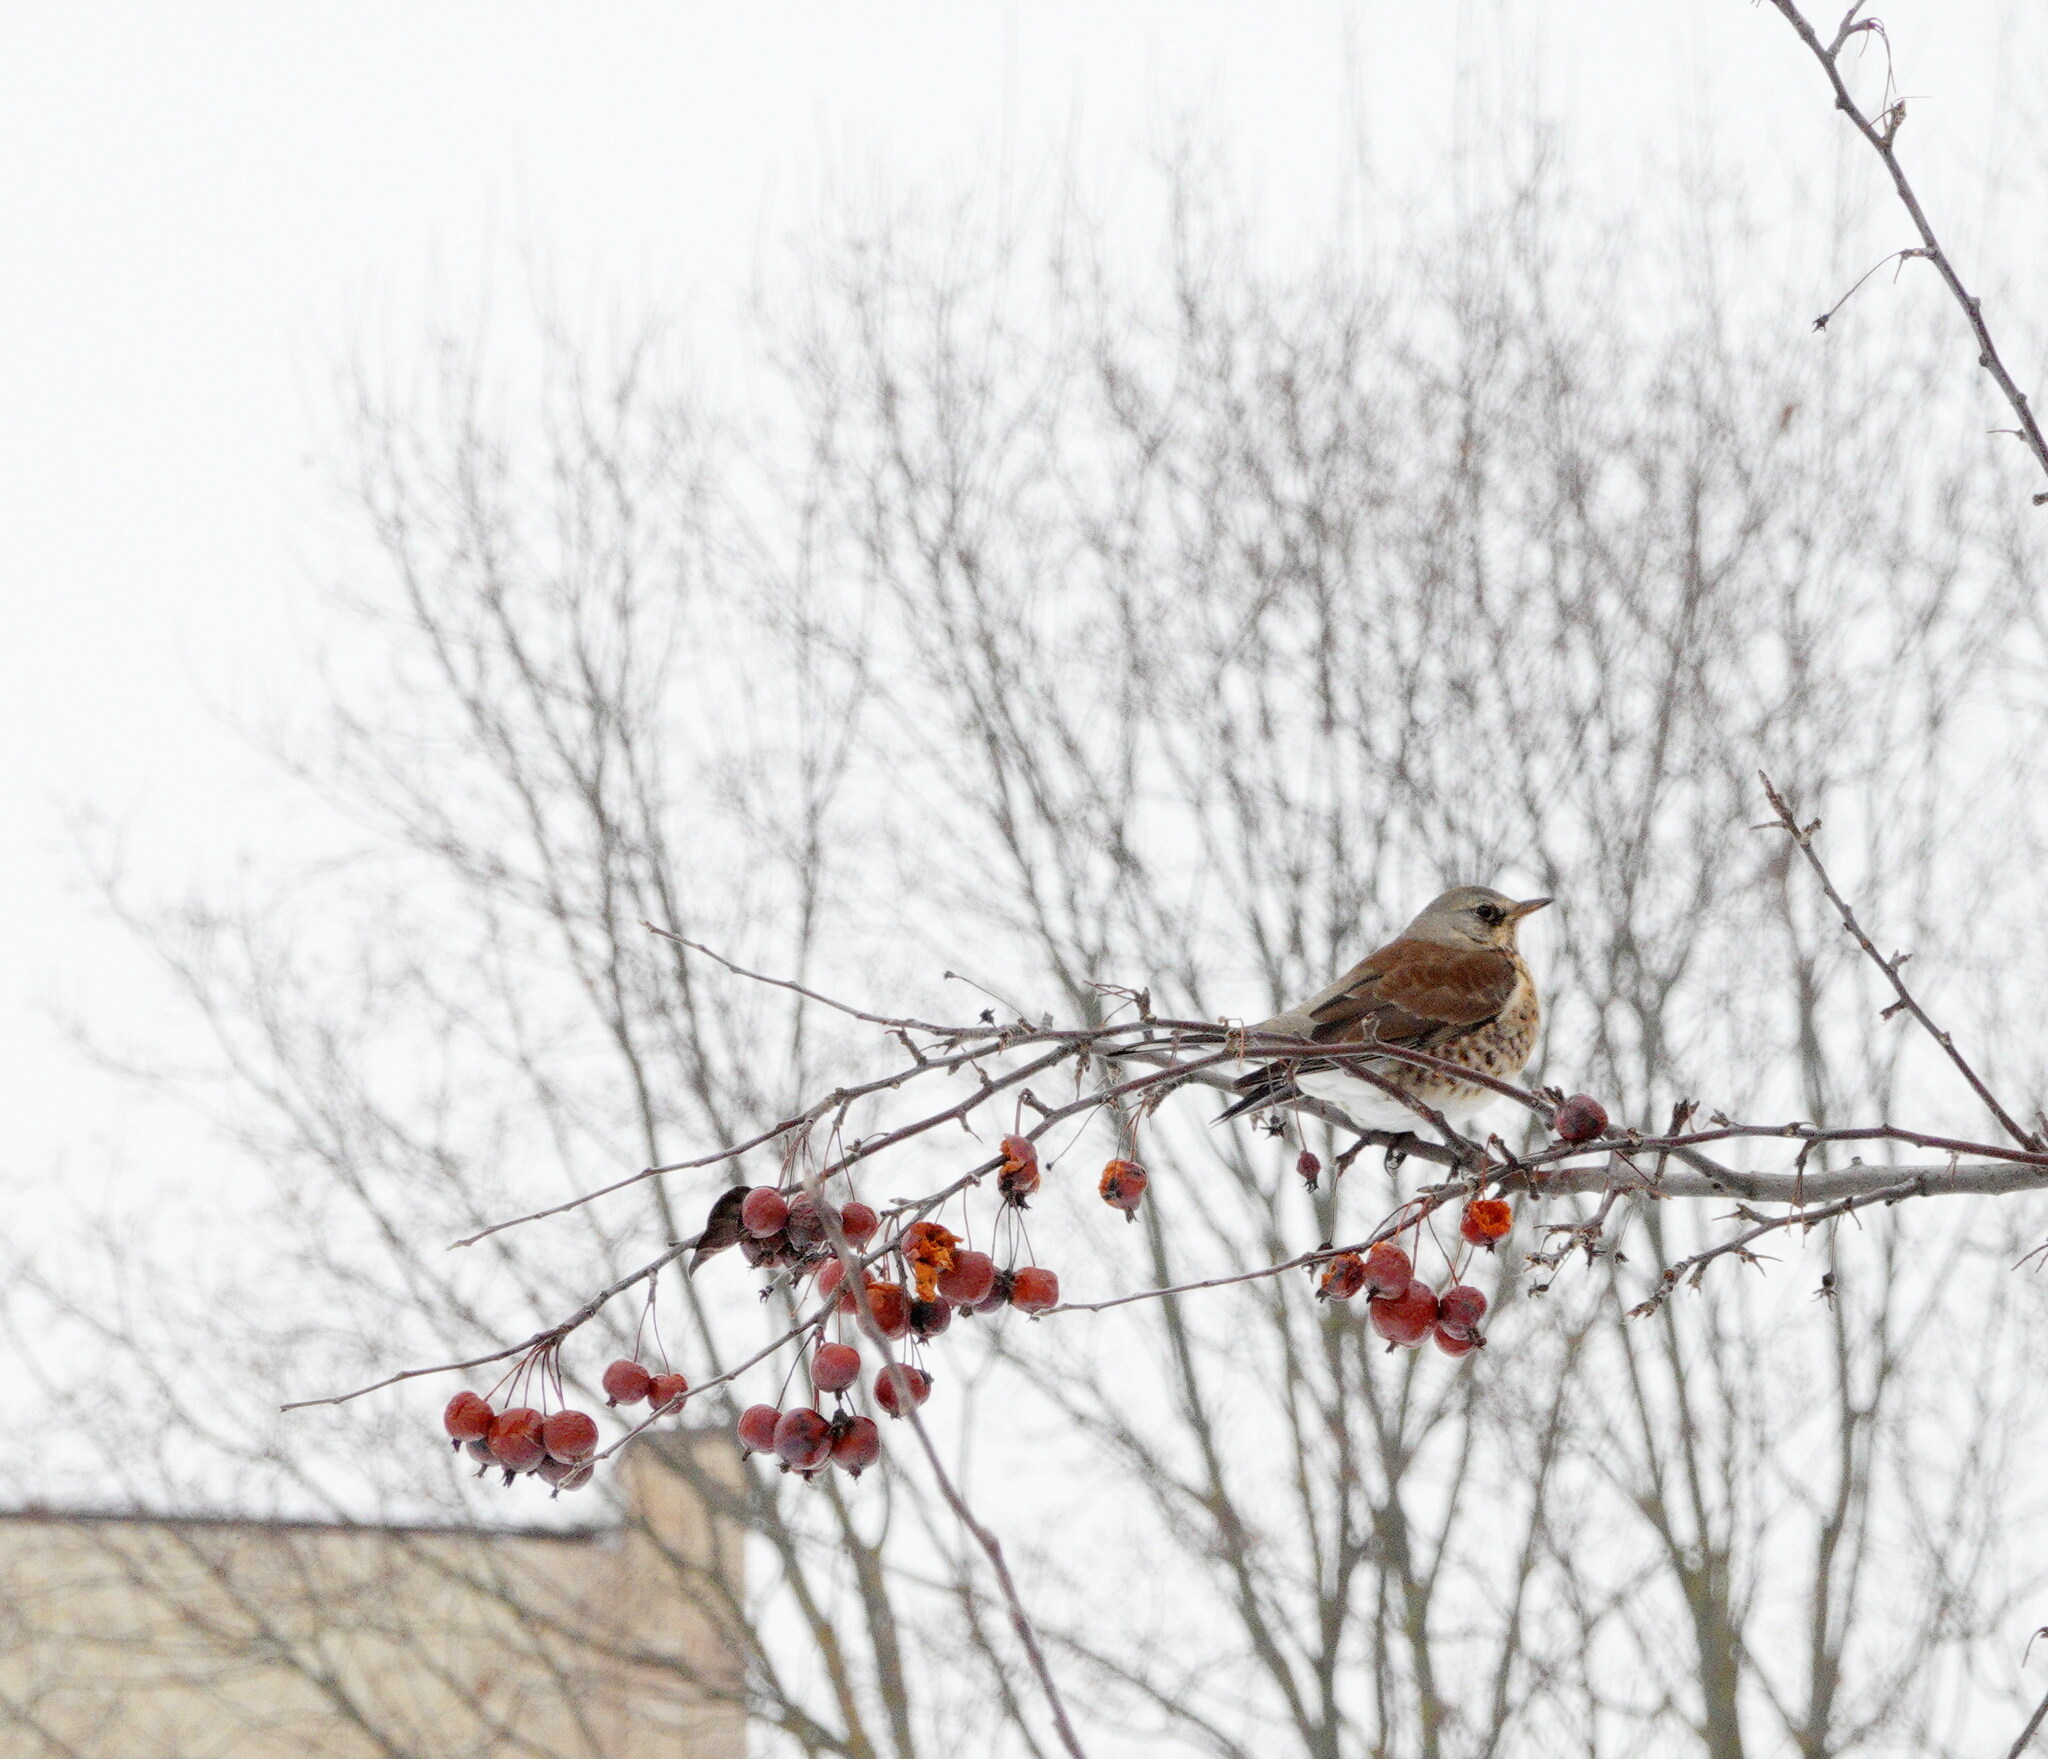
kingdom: Animalia
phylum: Chordata
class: Aves
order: Passeriformes
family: Turdidae
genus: Turdus
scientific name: Turdus pilaris
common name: Fieldfare
